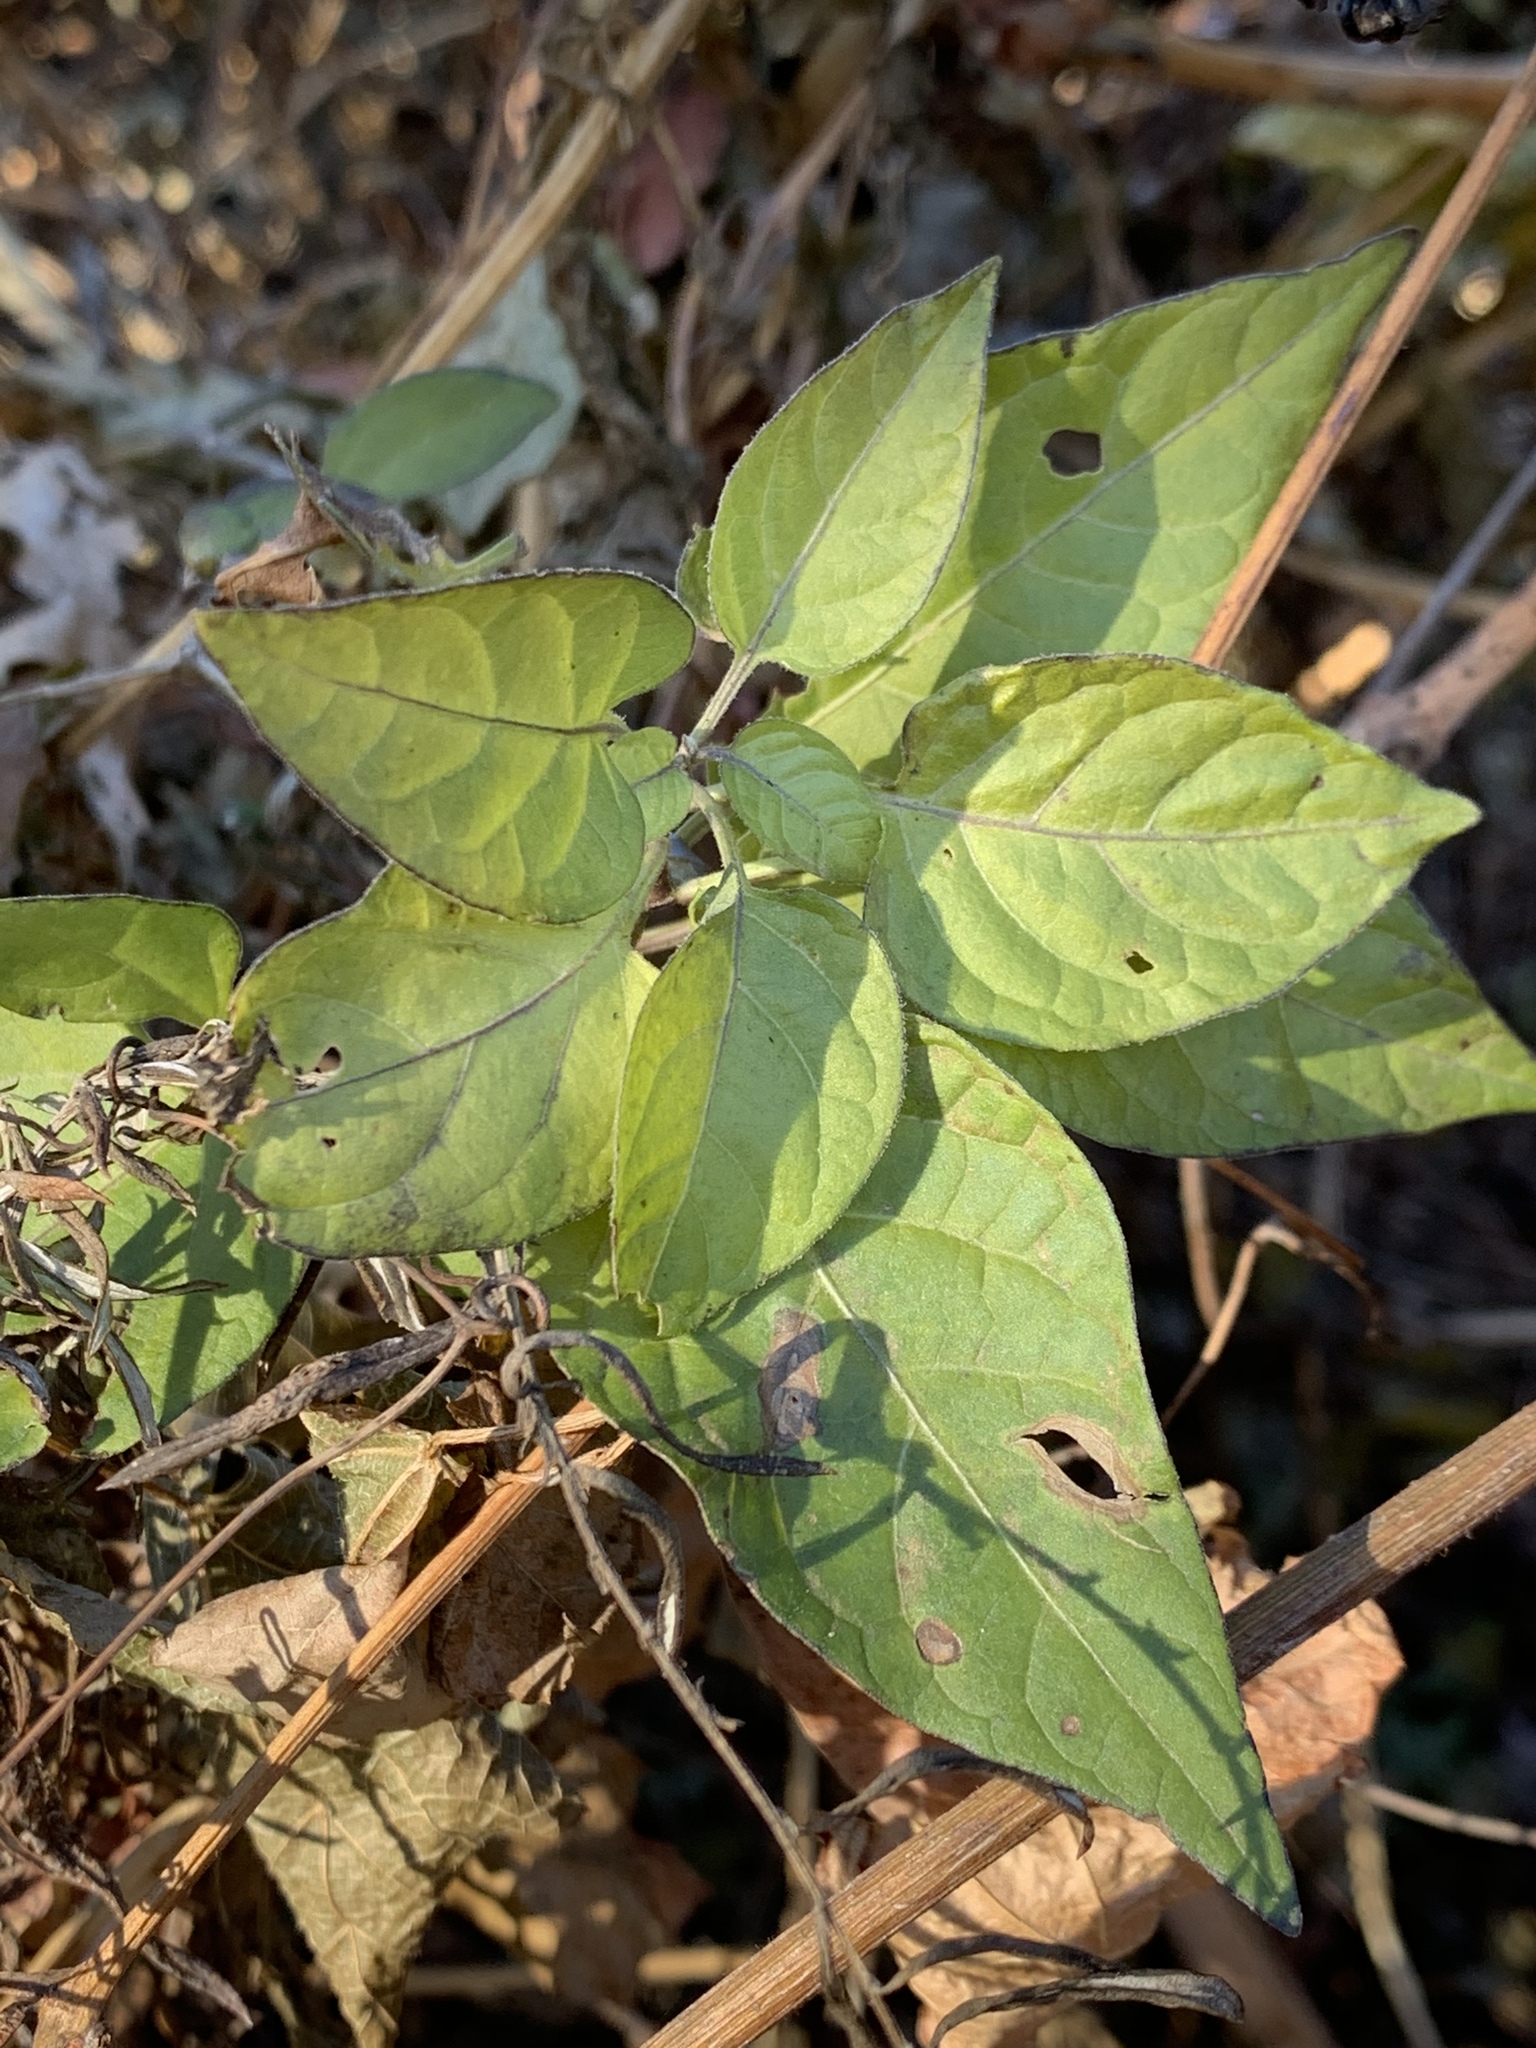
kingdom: Plantae
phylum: Tracheophyta
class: Magnoliopsida
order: Solanales
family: Solanaceae
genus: Solanum
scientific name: Solanum dulcamara
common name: Climbing nightshade
